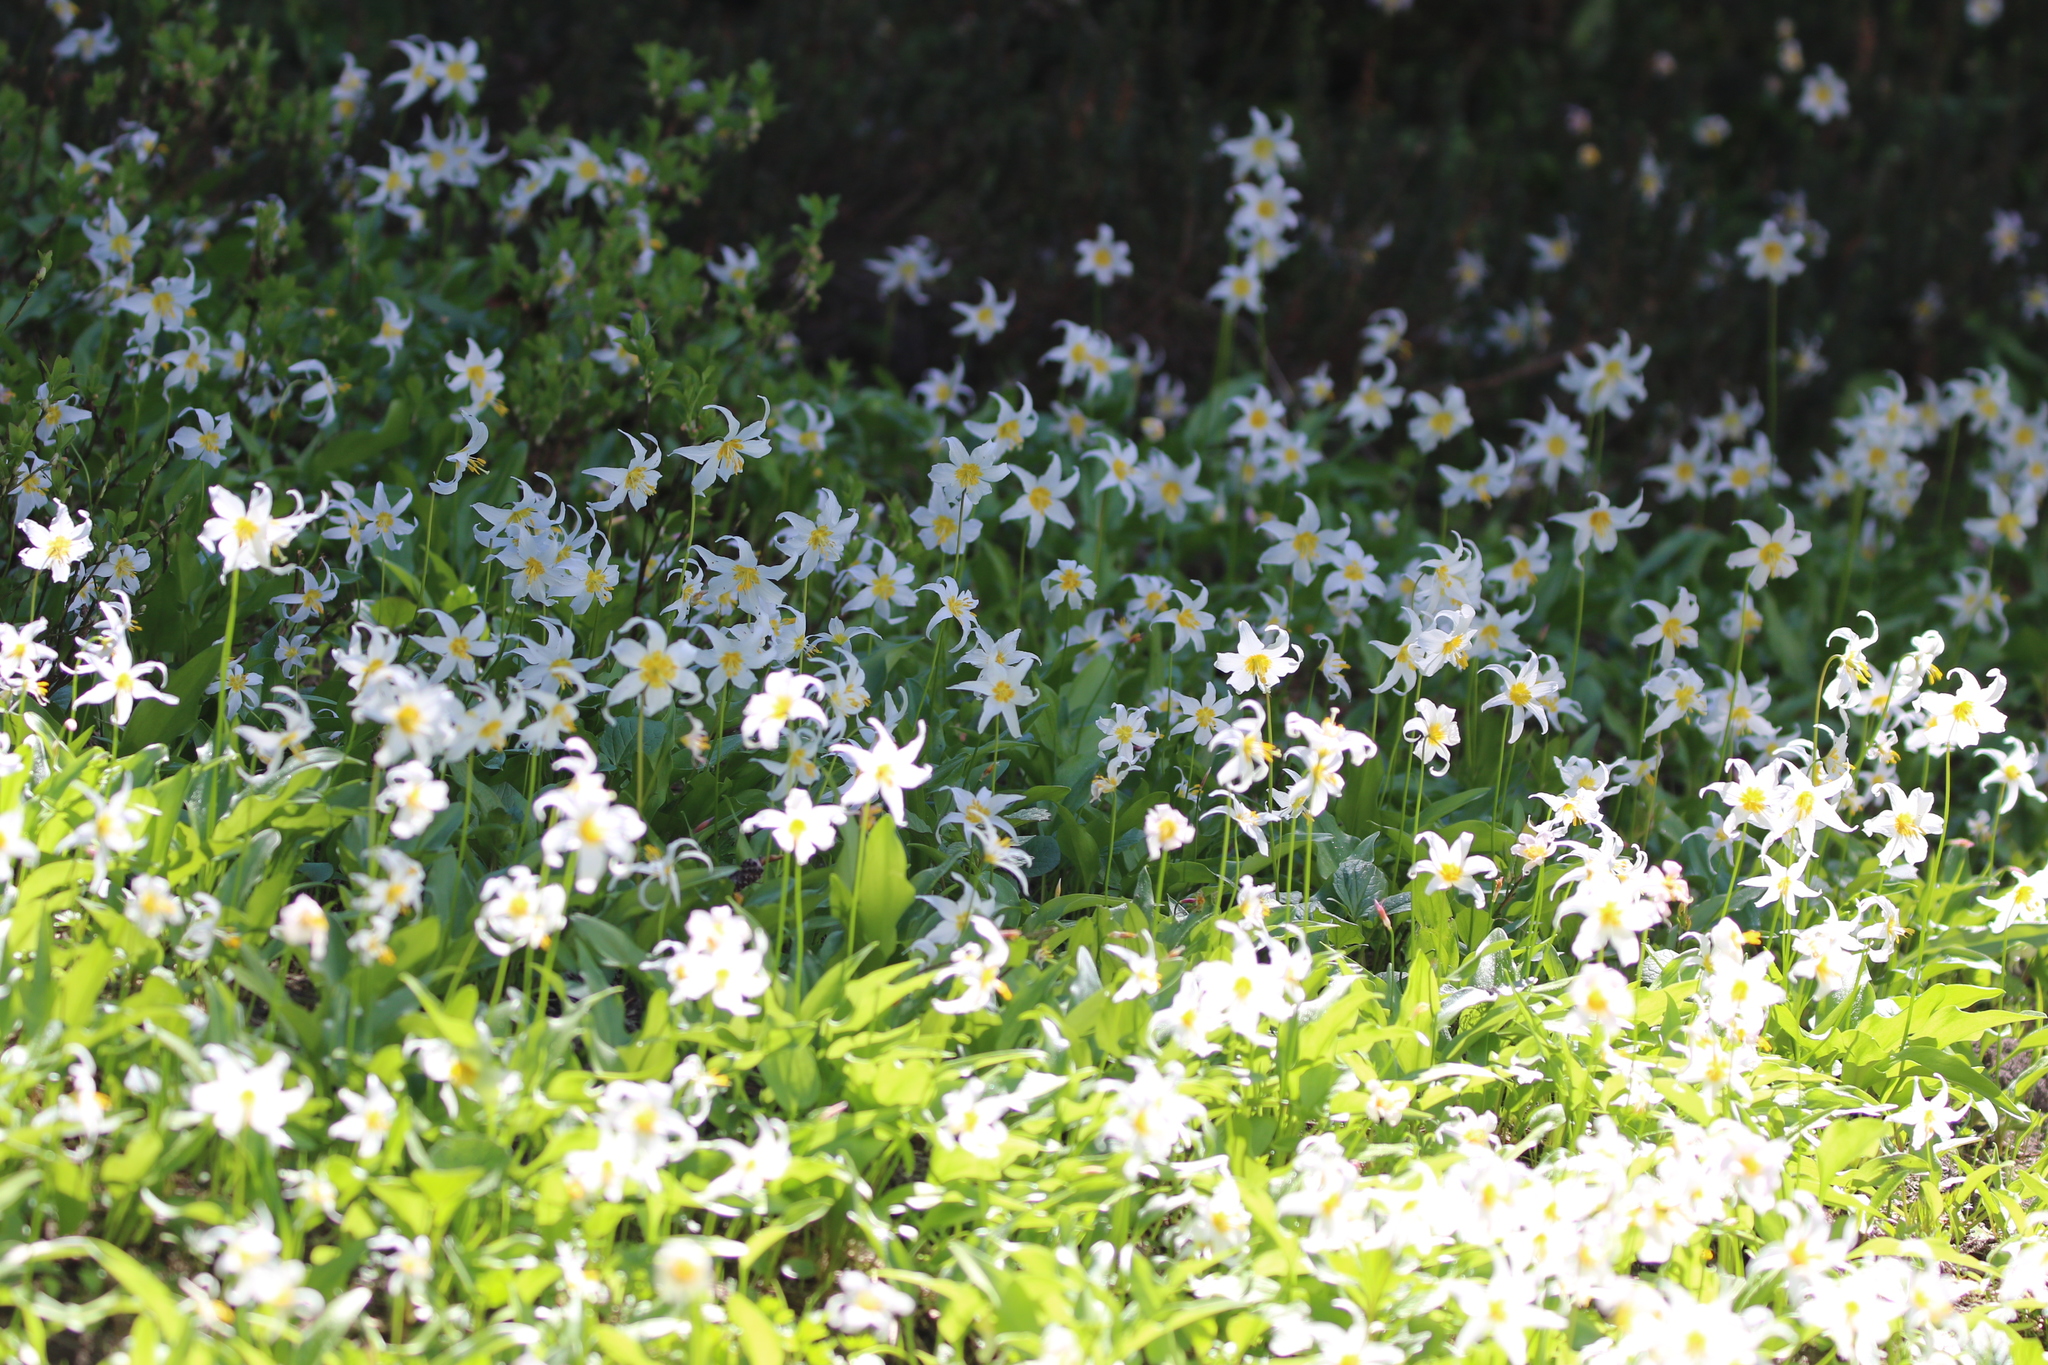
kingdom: Plantae
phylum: Tracheophyta
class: Liliopsida
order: Liliales
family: Liliaceae
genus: Erythronium
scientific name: Erythronium montanum
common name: Avalanche lily
